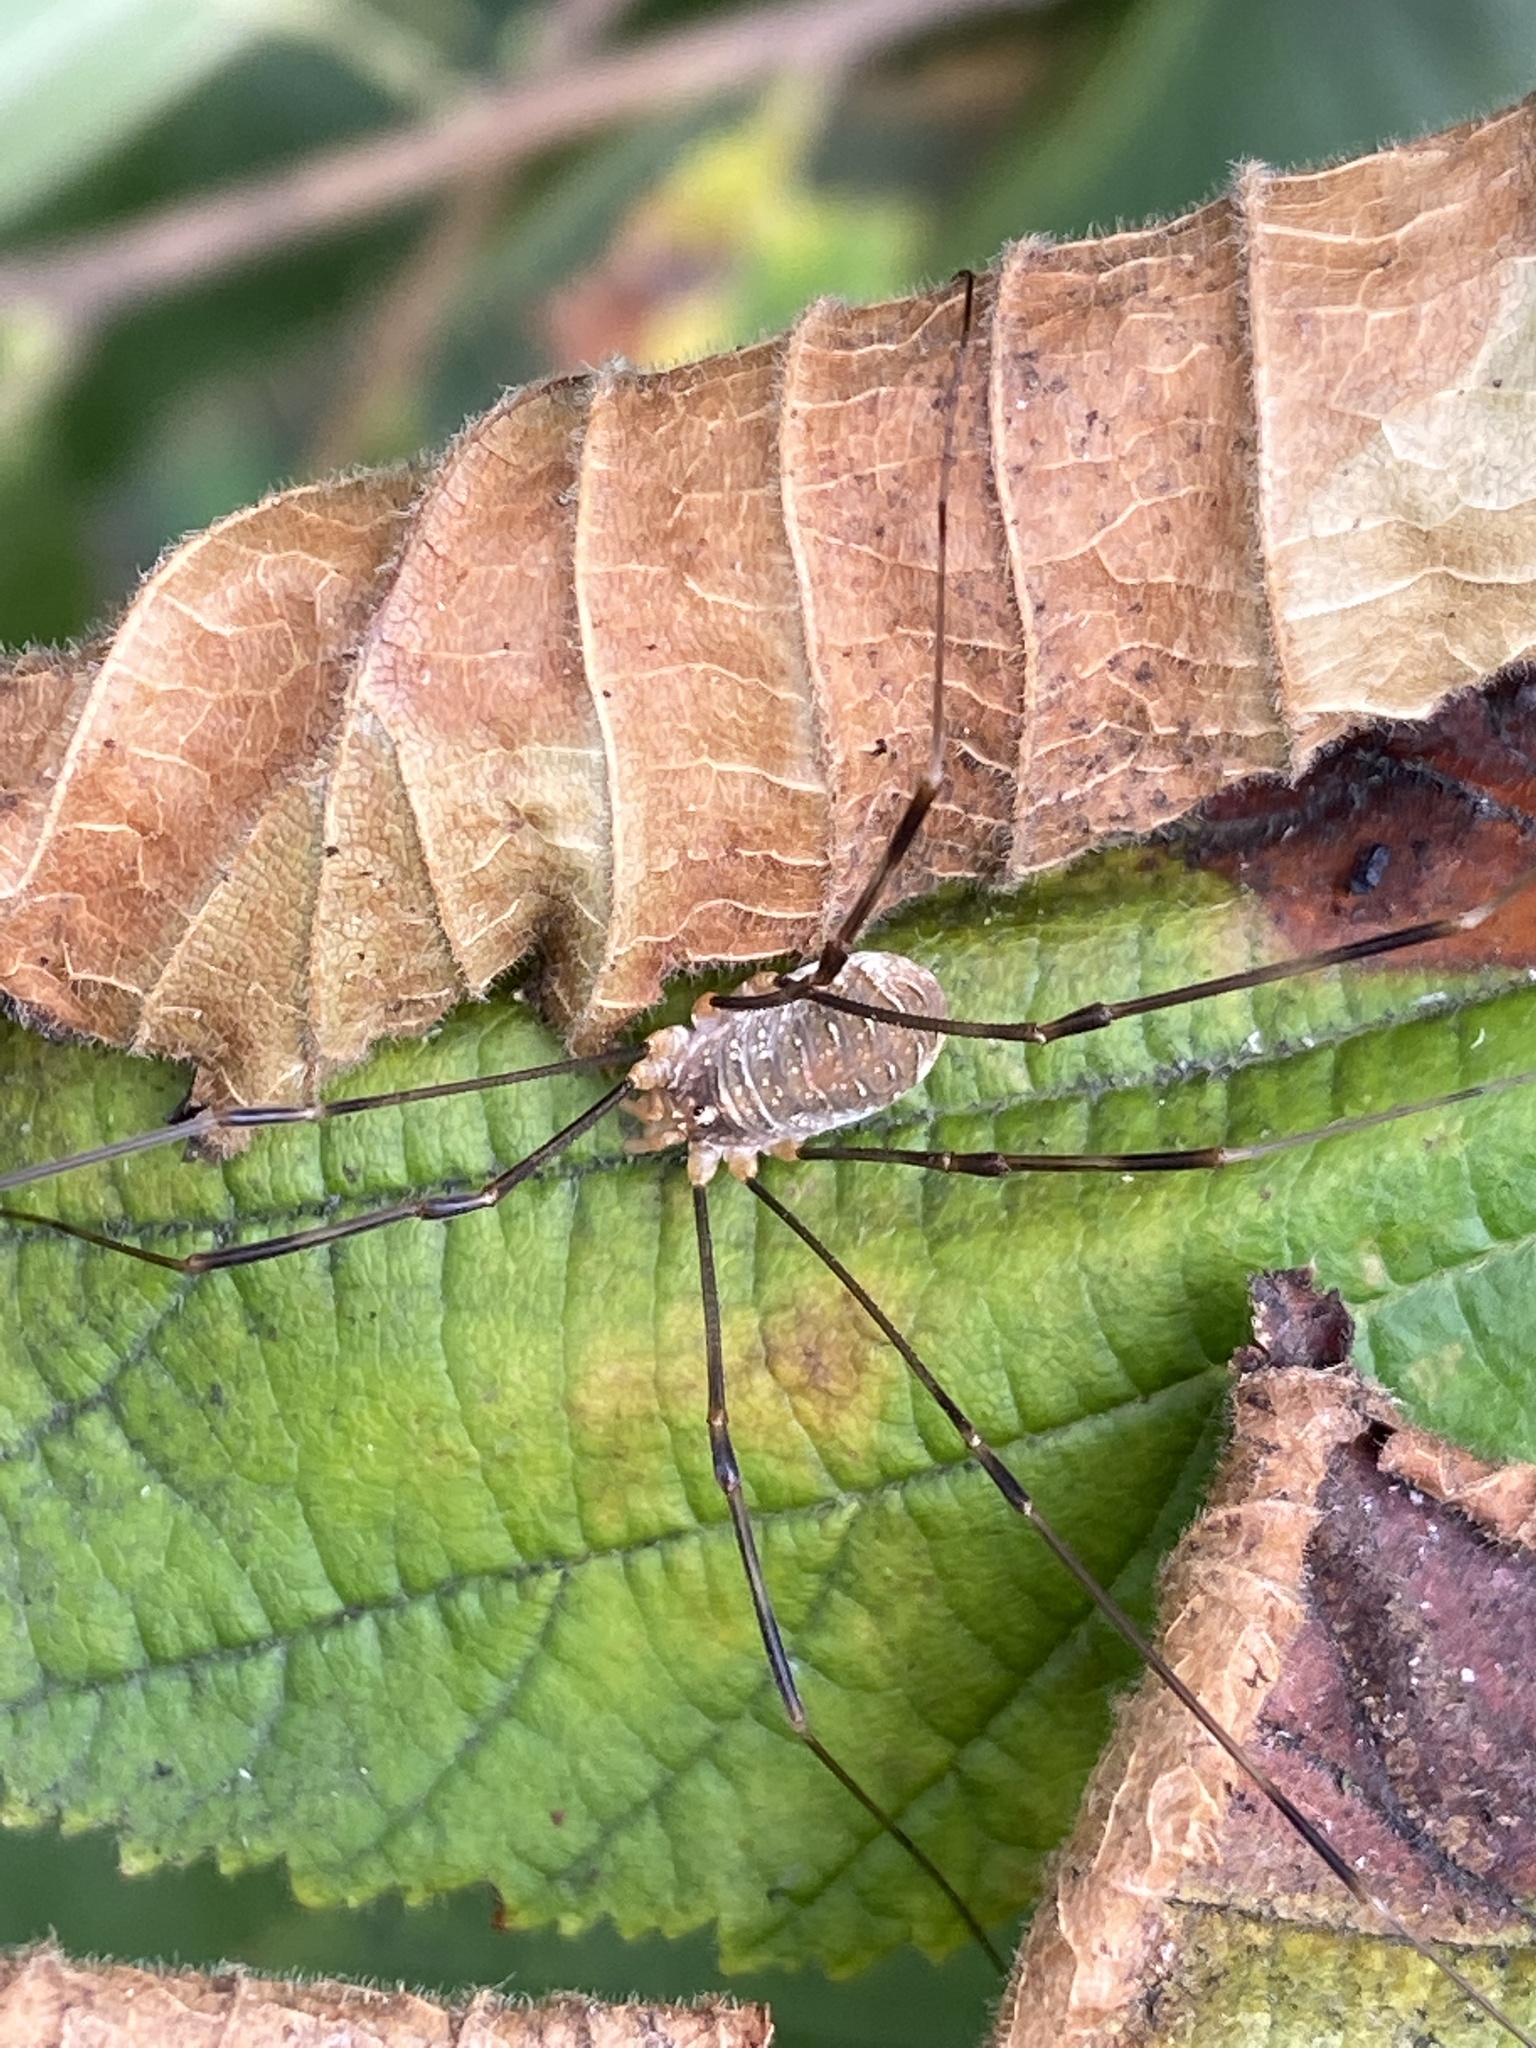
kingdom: Animalia
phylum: Arthropoda
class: Arachnida
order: Opiliones
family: Phalangiidae
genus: Opilio
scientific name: Opilio canestrinii
